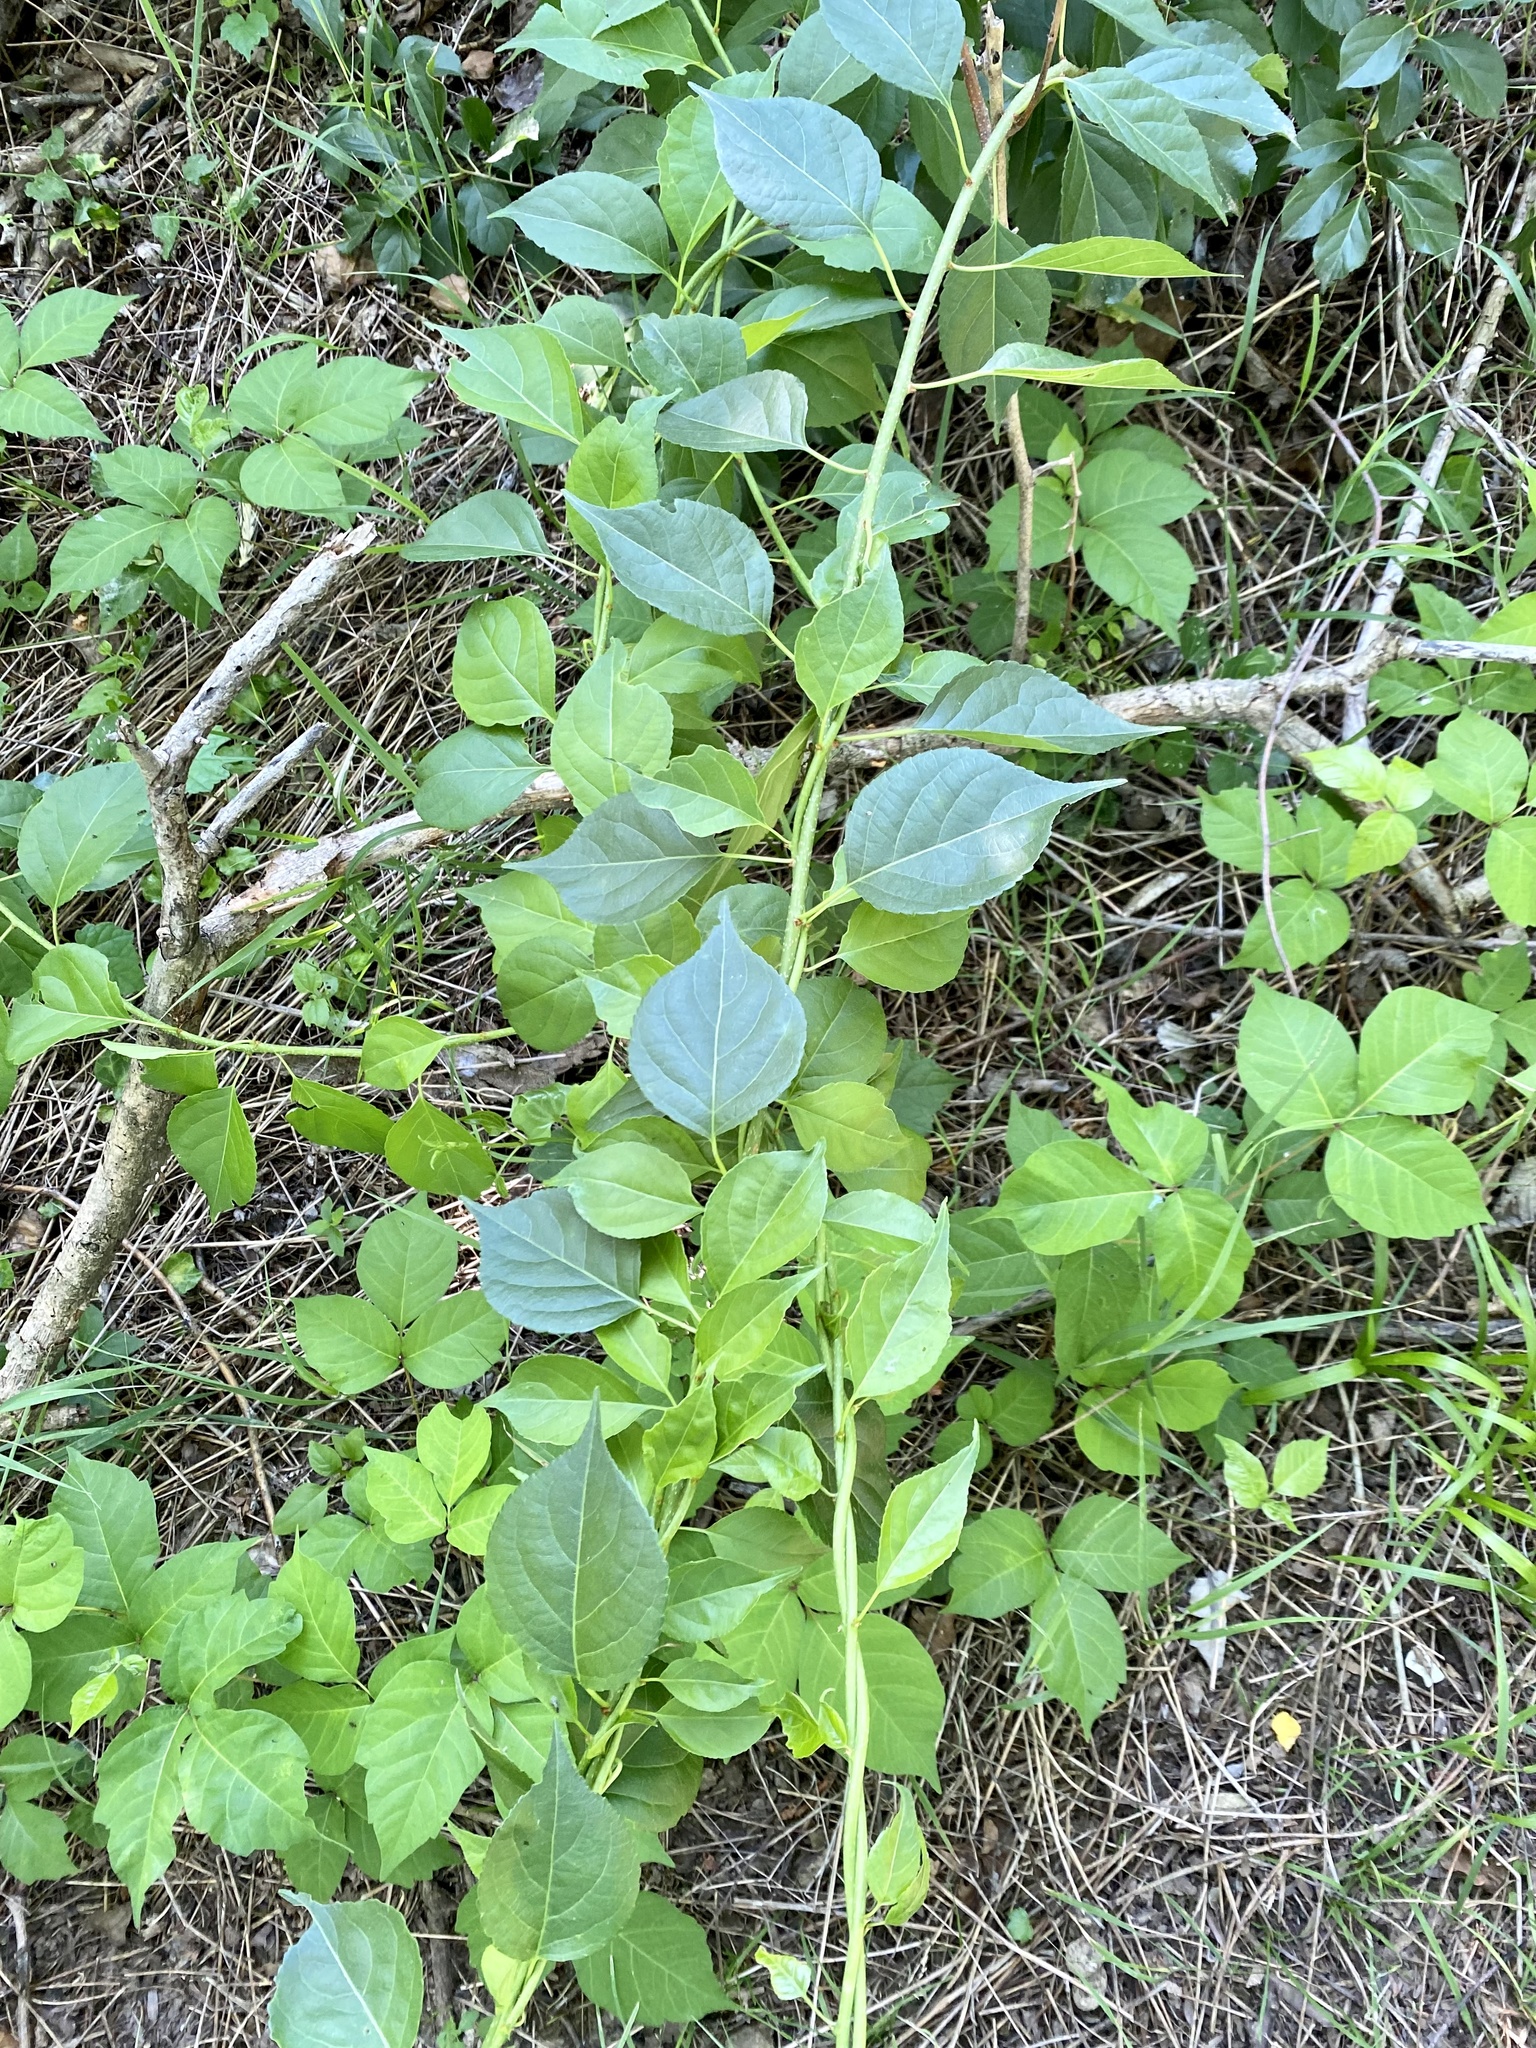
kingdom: Plantae
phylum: Tracheophyta
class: Magnoliopsida
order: Celastrales
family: Celastraceae
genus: Celastrus
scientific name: Celastrus orbiculatus
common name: Oriental bittersweet
